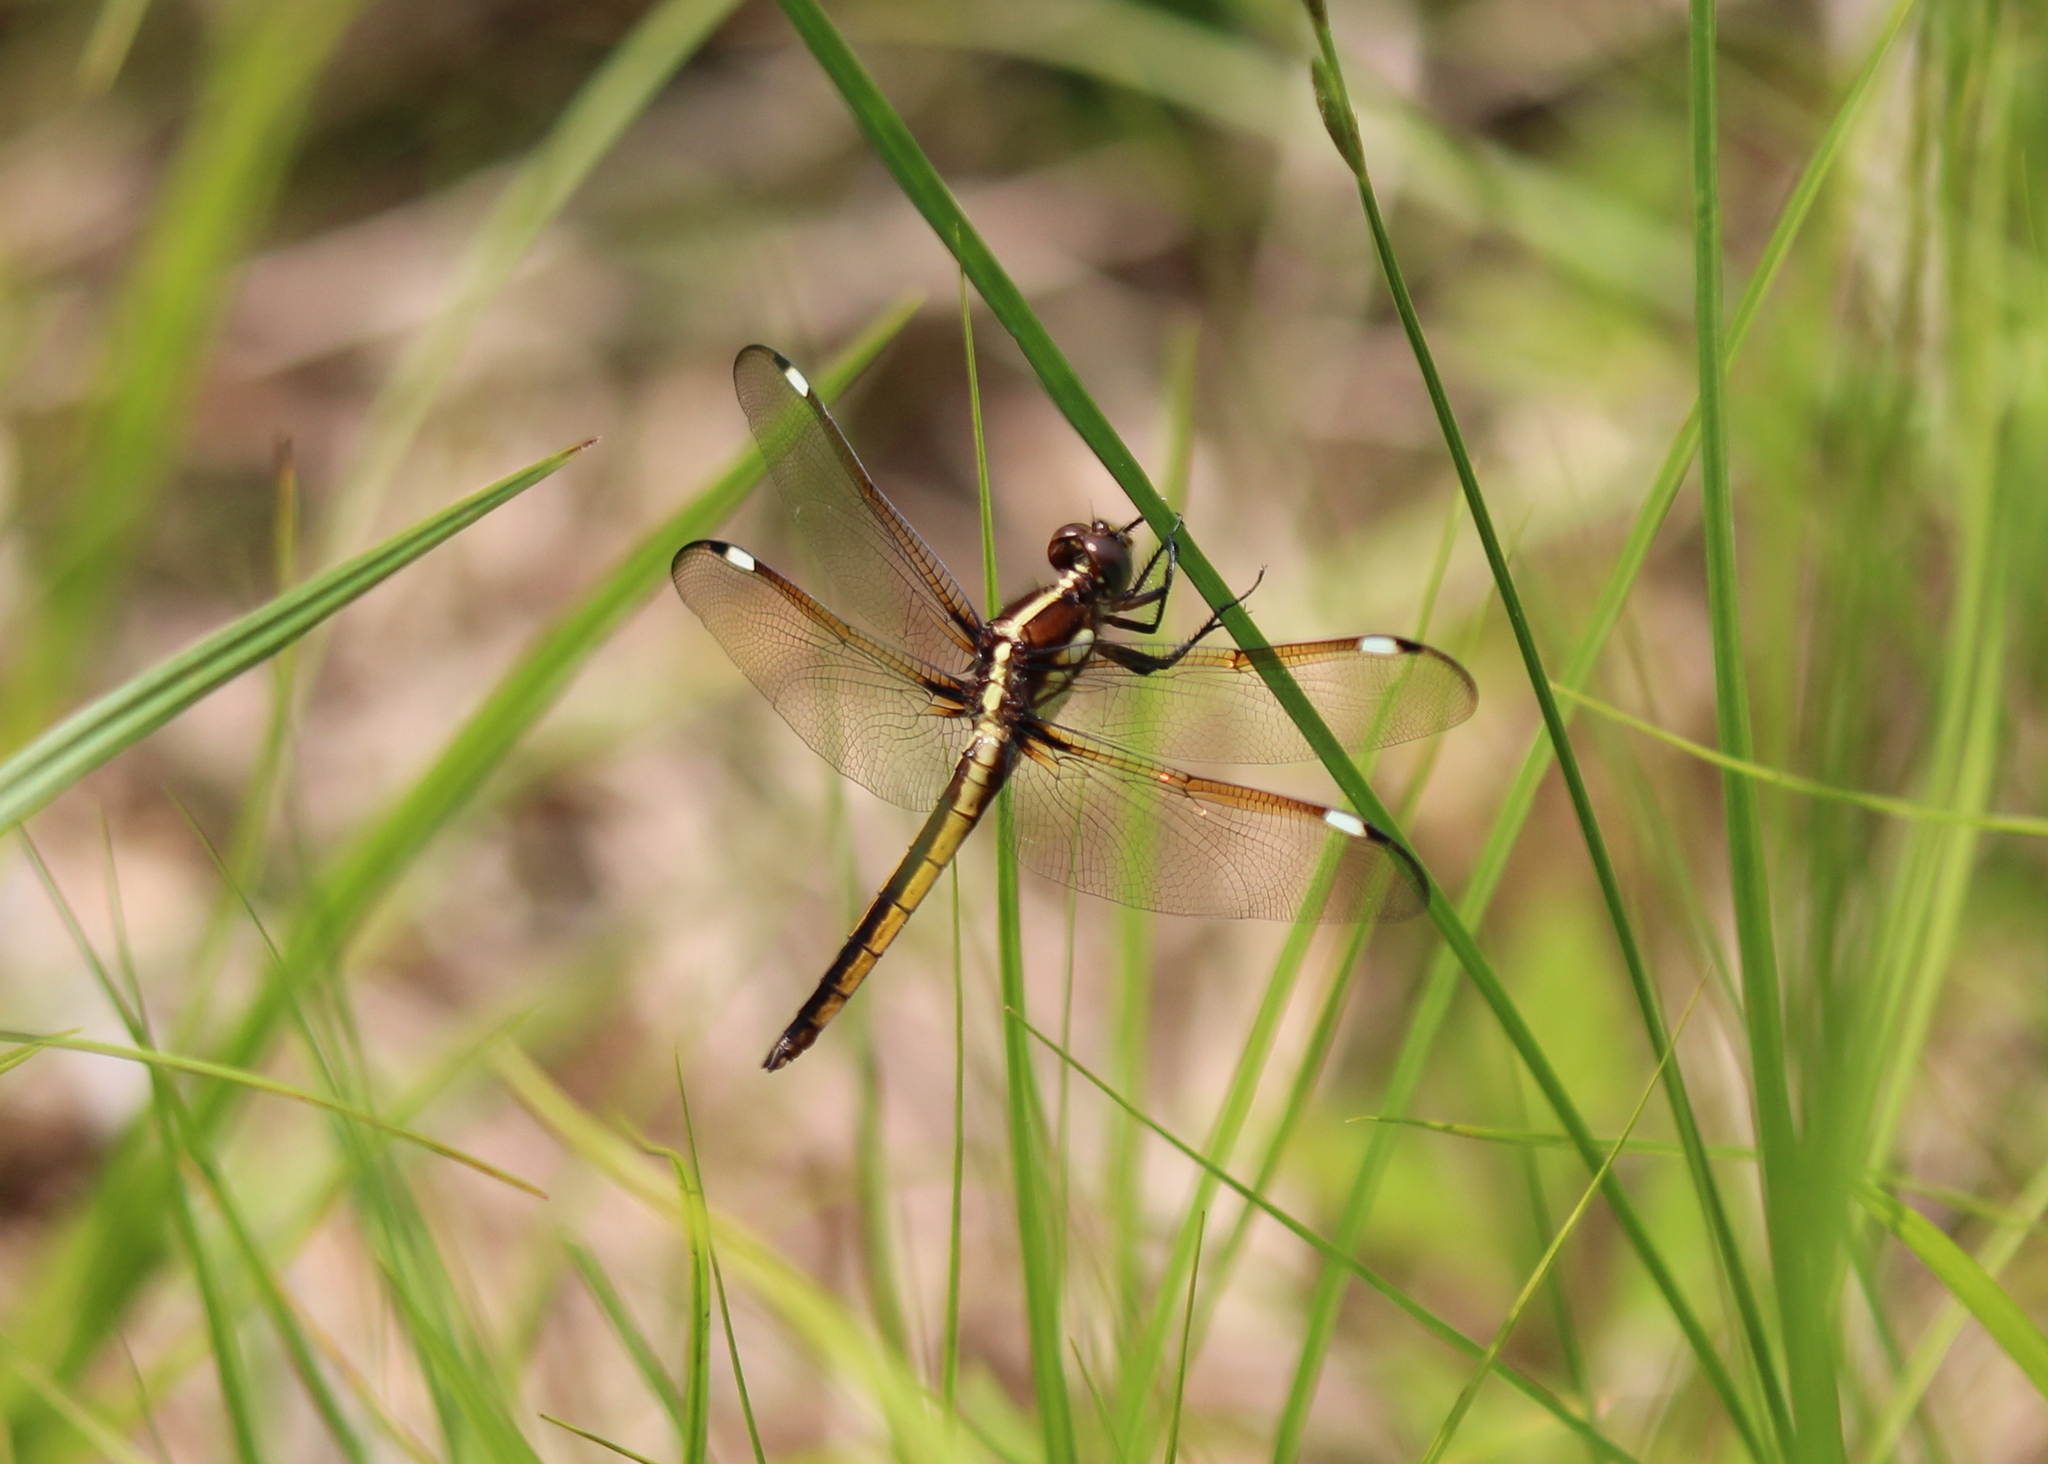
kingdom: Animalia
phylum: Arthropoda
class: Insecta
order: Odonata
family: Libellulidae
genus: Libellula
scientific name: Libellula cyanea
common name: Spangled skimmer
